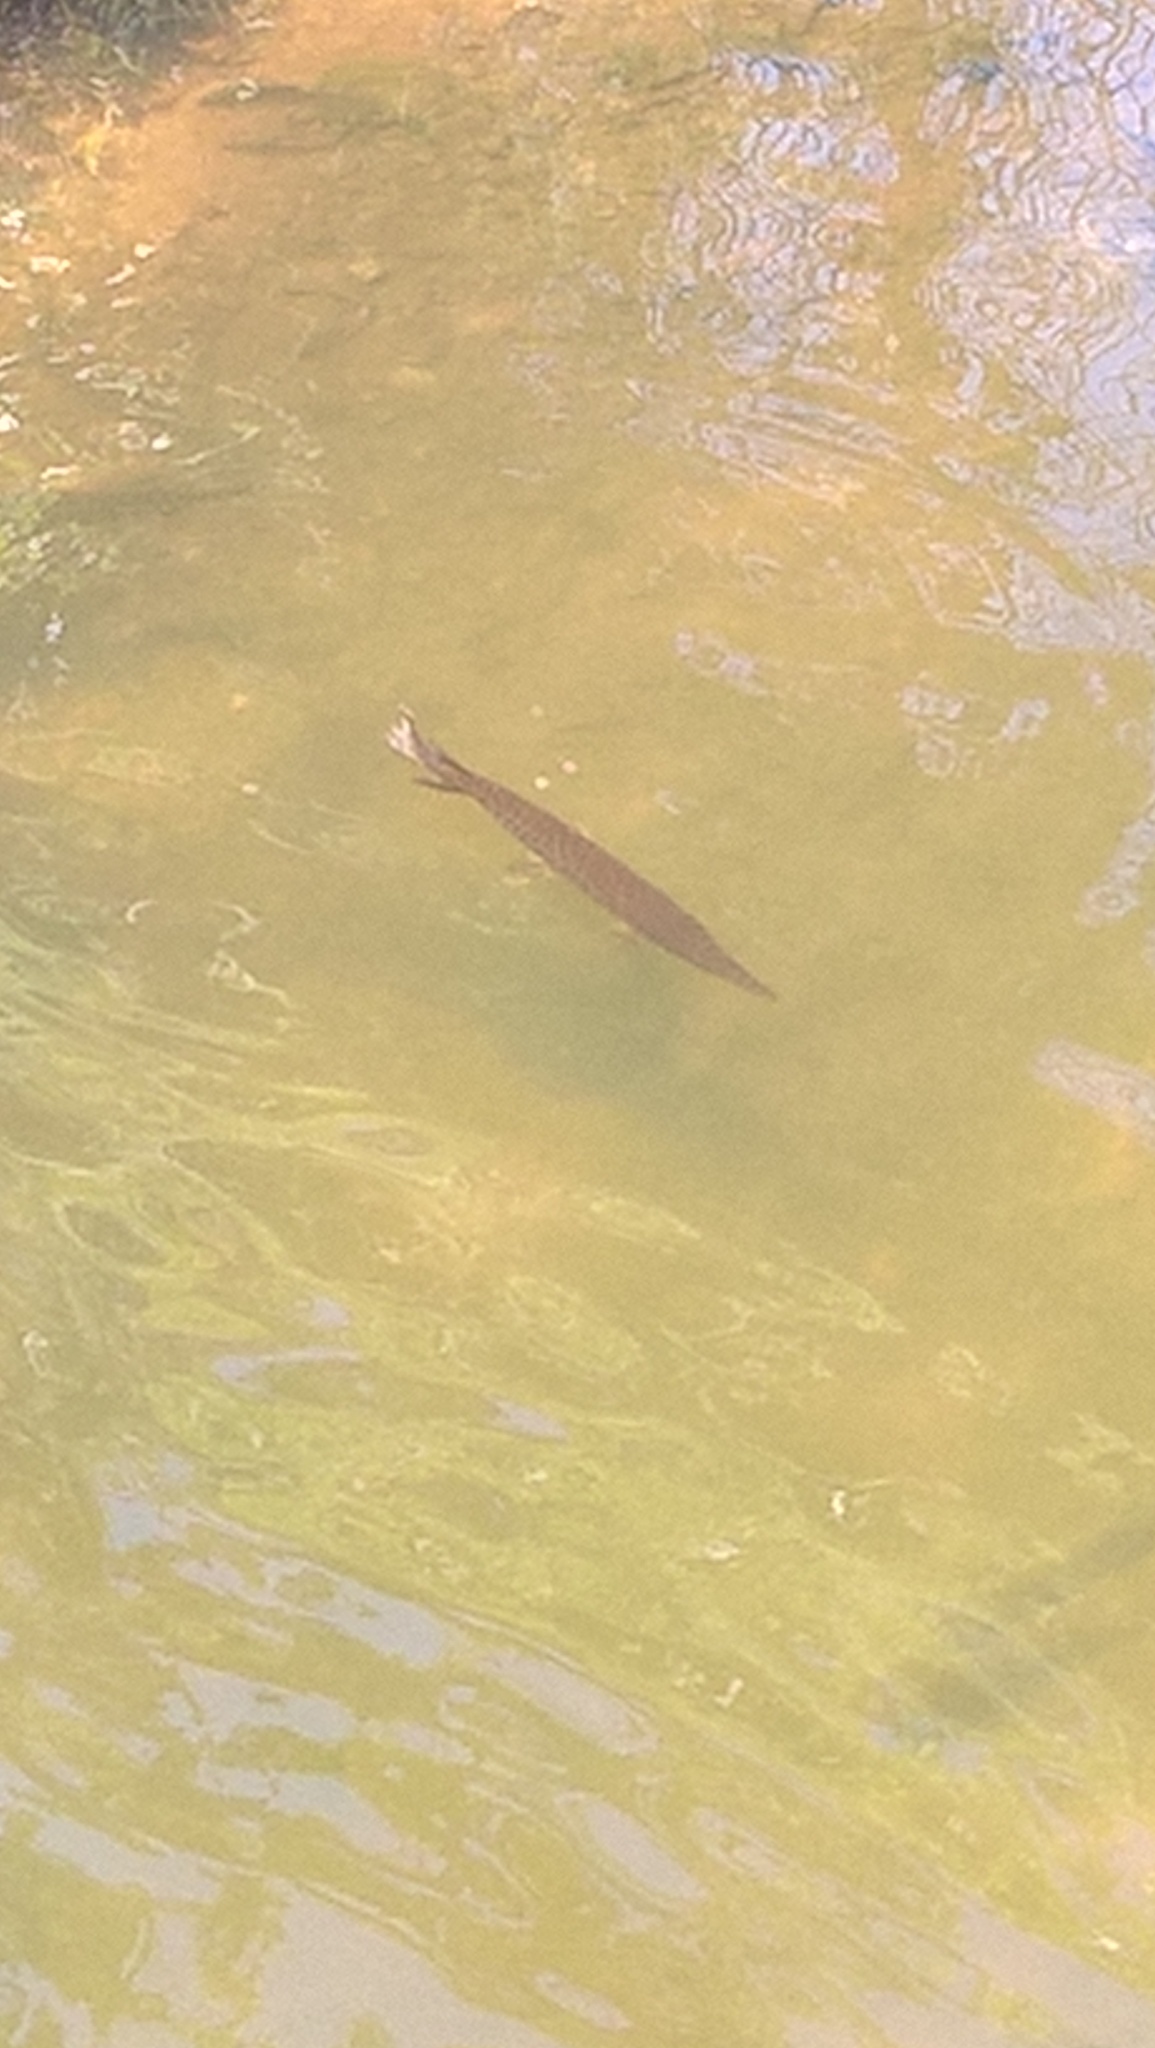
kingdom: Animalia
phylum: Chordata
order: Lepisosteiformes
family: Lepisosteidae
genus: Lepisosteus
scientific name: Lepisosteus platyrhincus
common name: Florida gar
